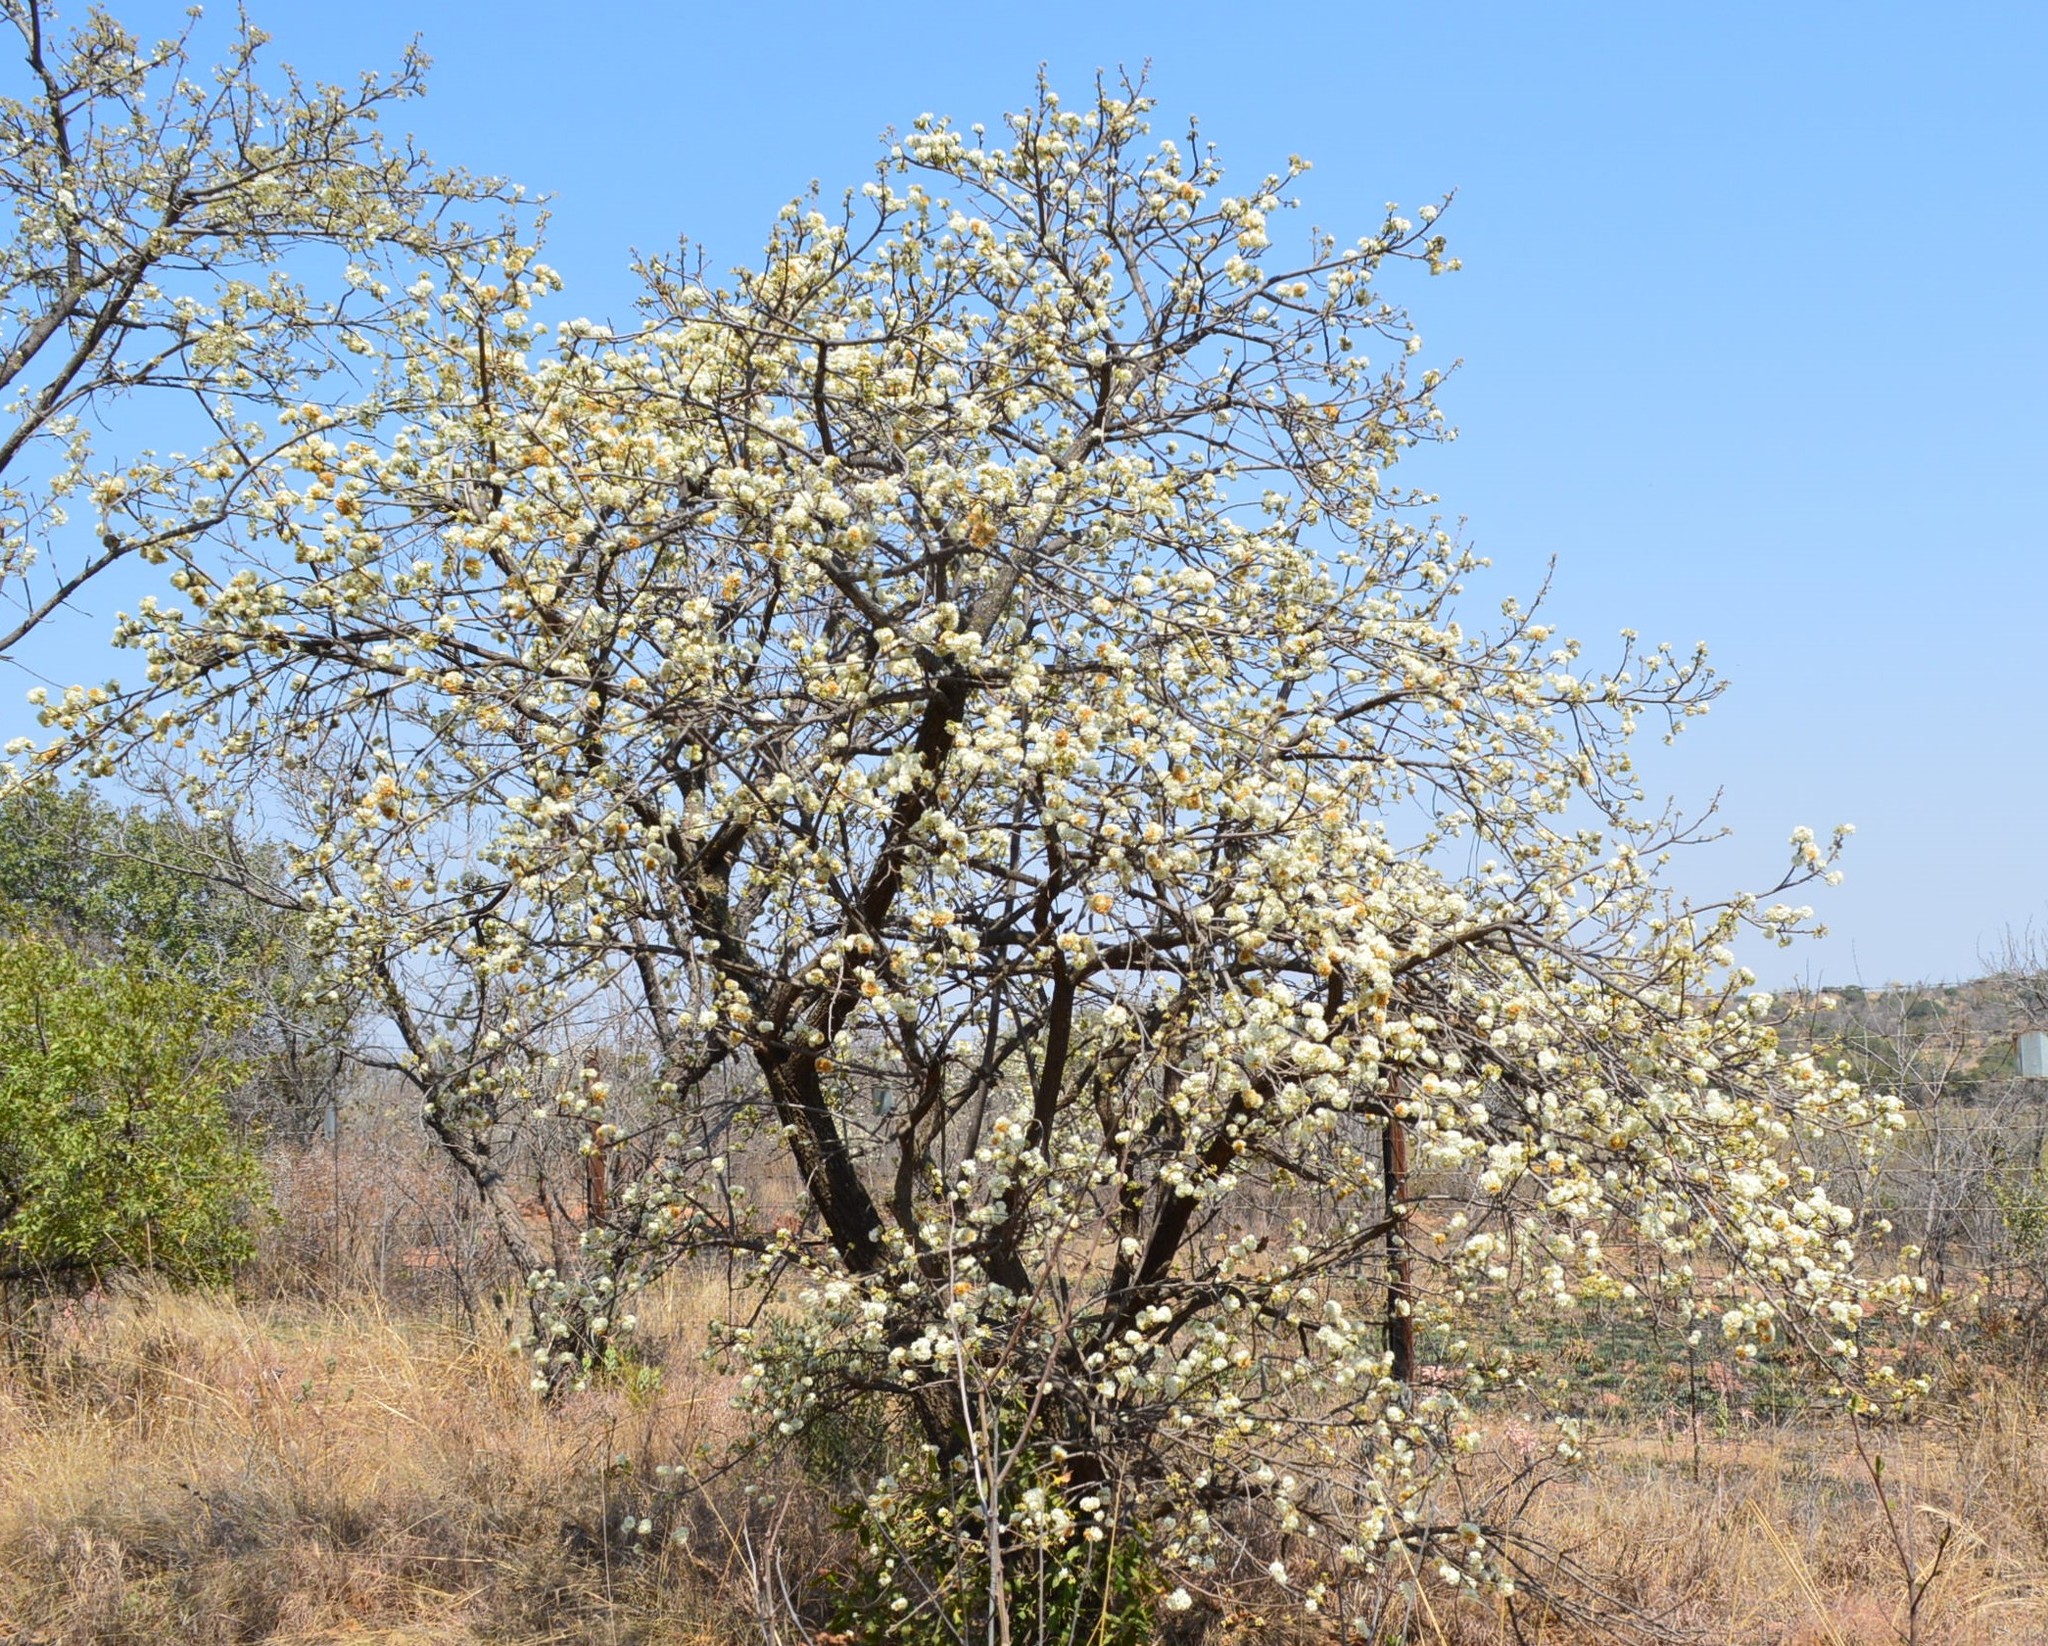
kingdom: Plantae
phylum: Tracheophyta
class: Magnoliopsida
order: Malvales
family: Malvaceae
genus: Dombeya
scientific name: Dombeya rotundifolia
